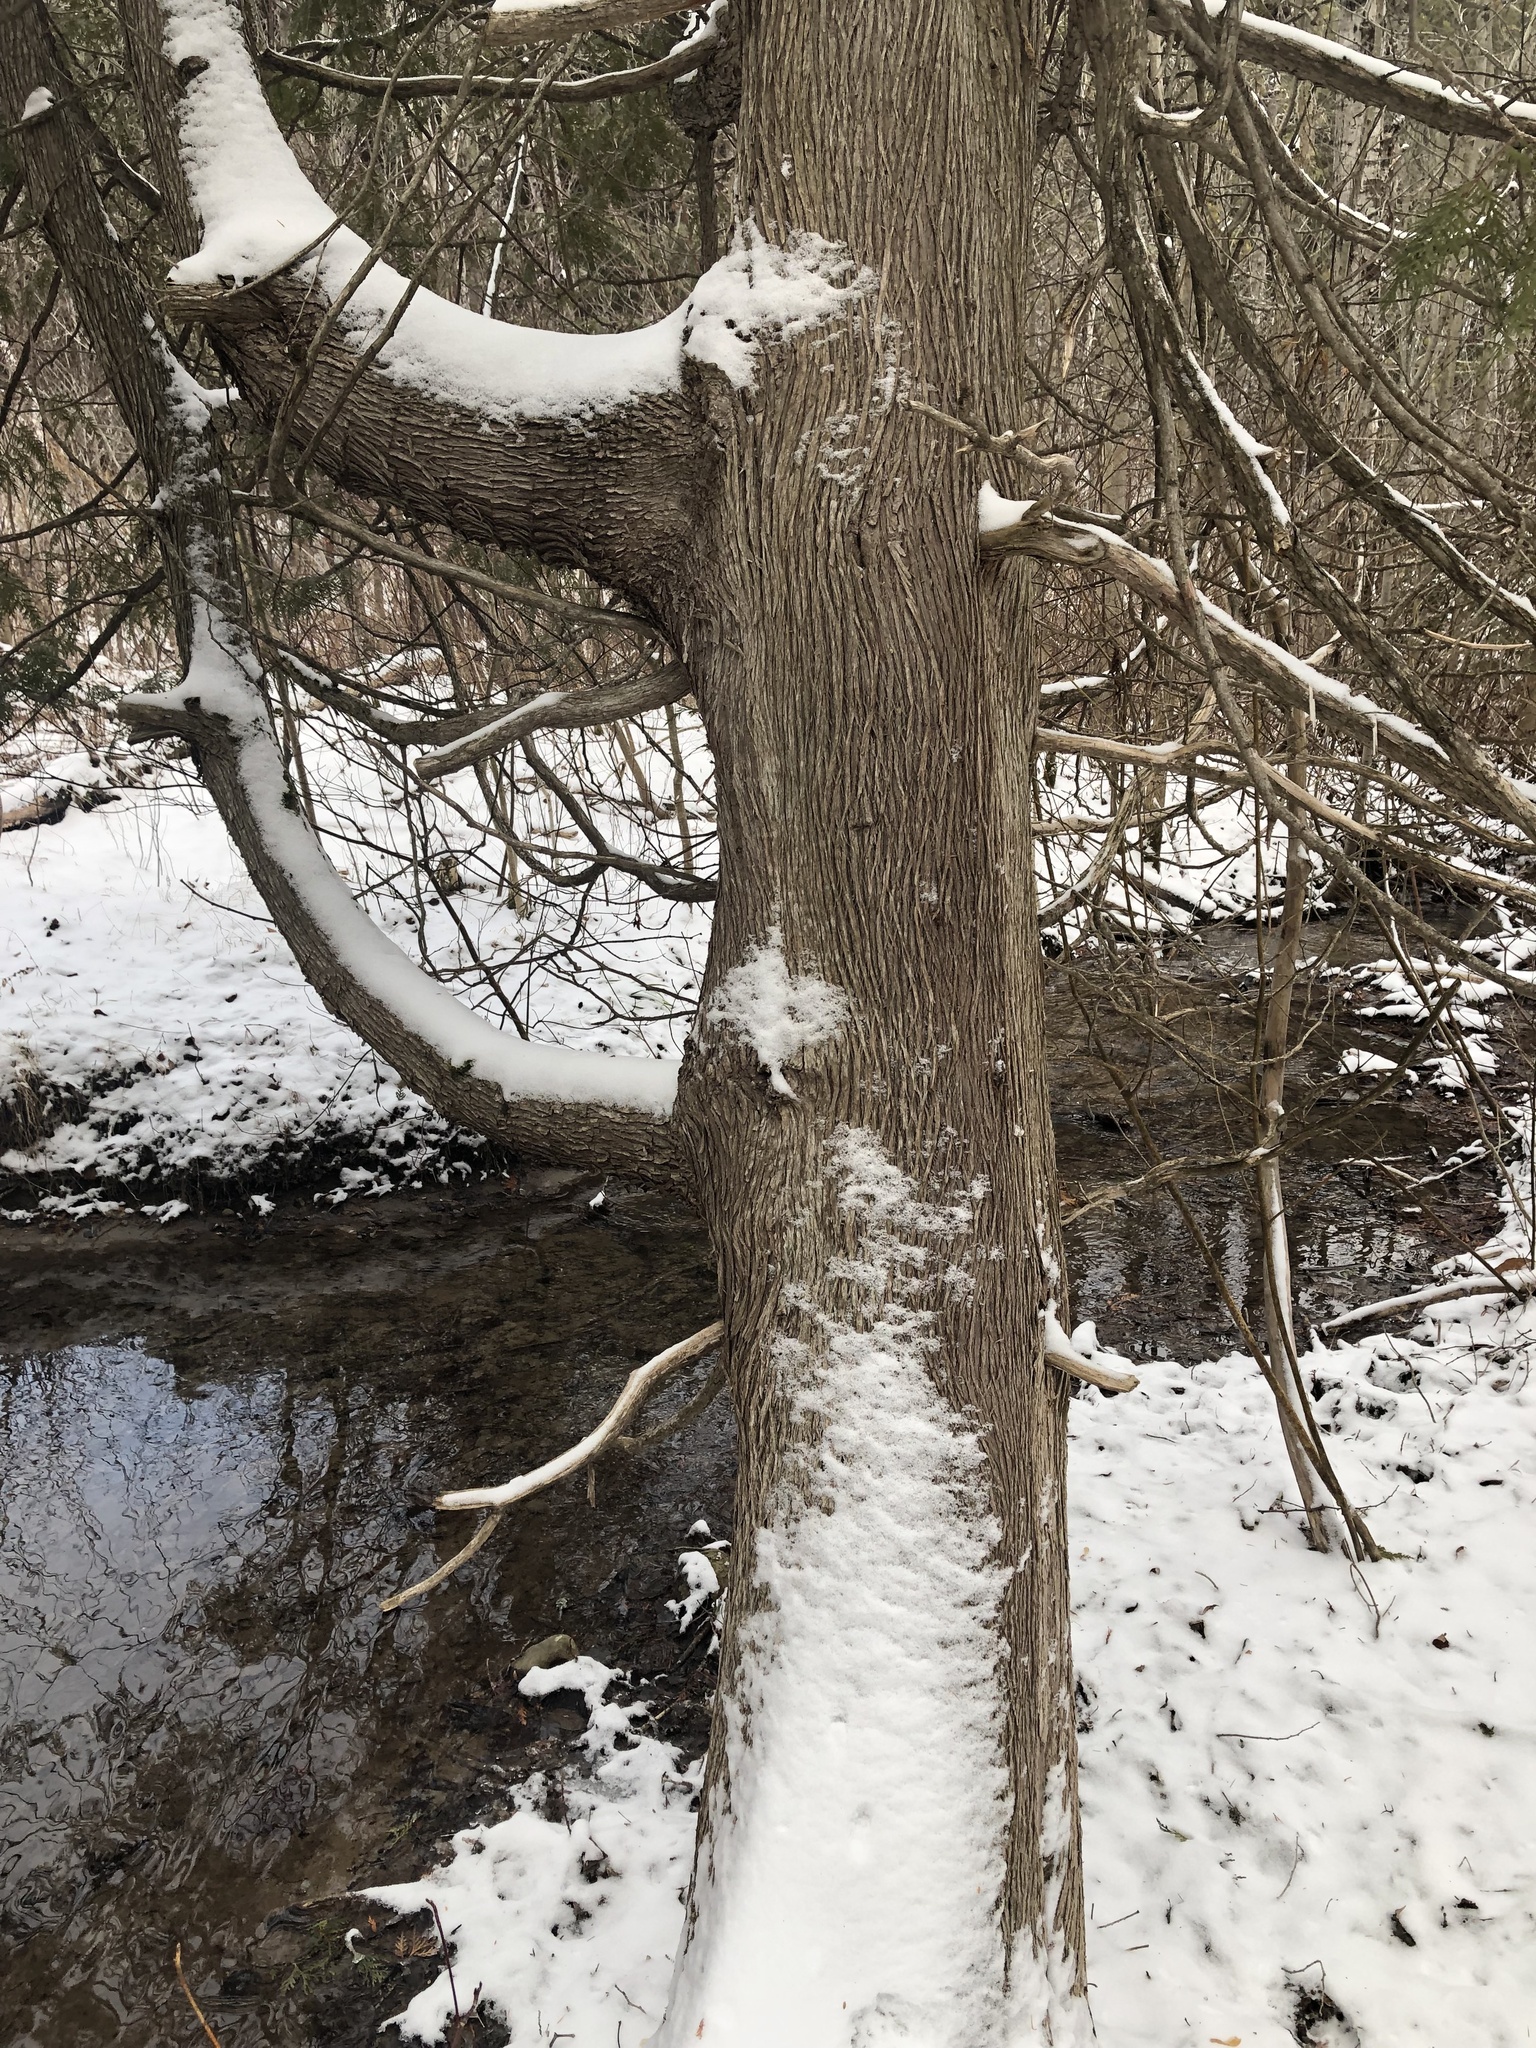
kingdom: Plantae
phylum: Tracheophyta
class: Pinopsida
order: Pinales
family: Cupressaceae
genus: Thuja
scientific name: Thuja occidentalis
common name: Northern white-cedar
